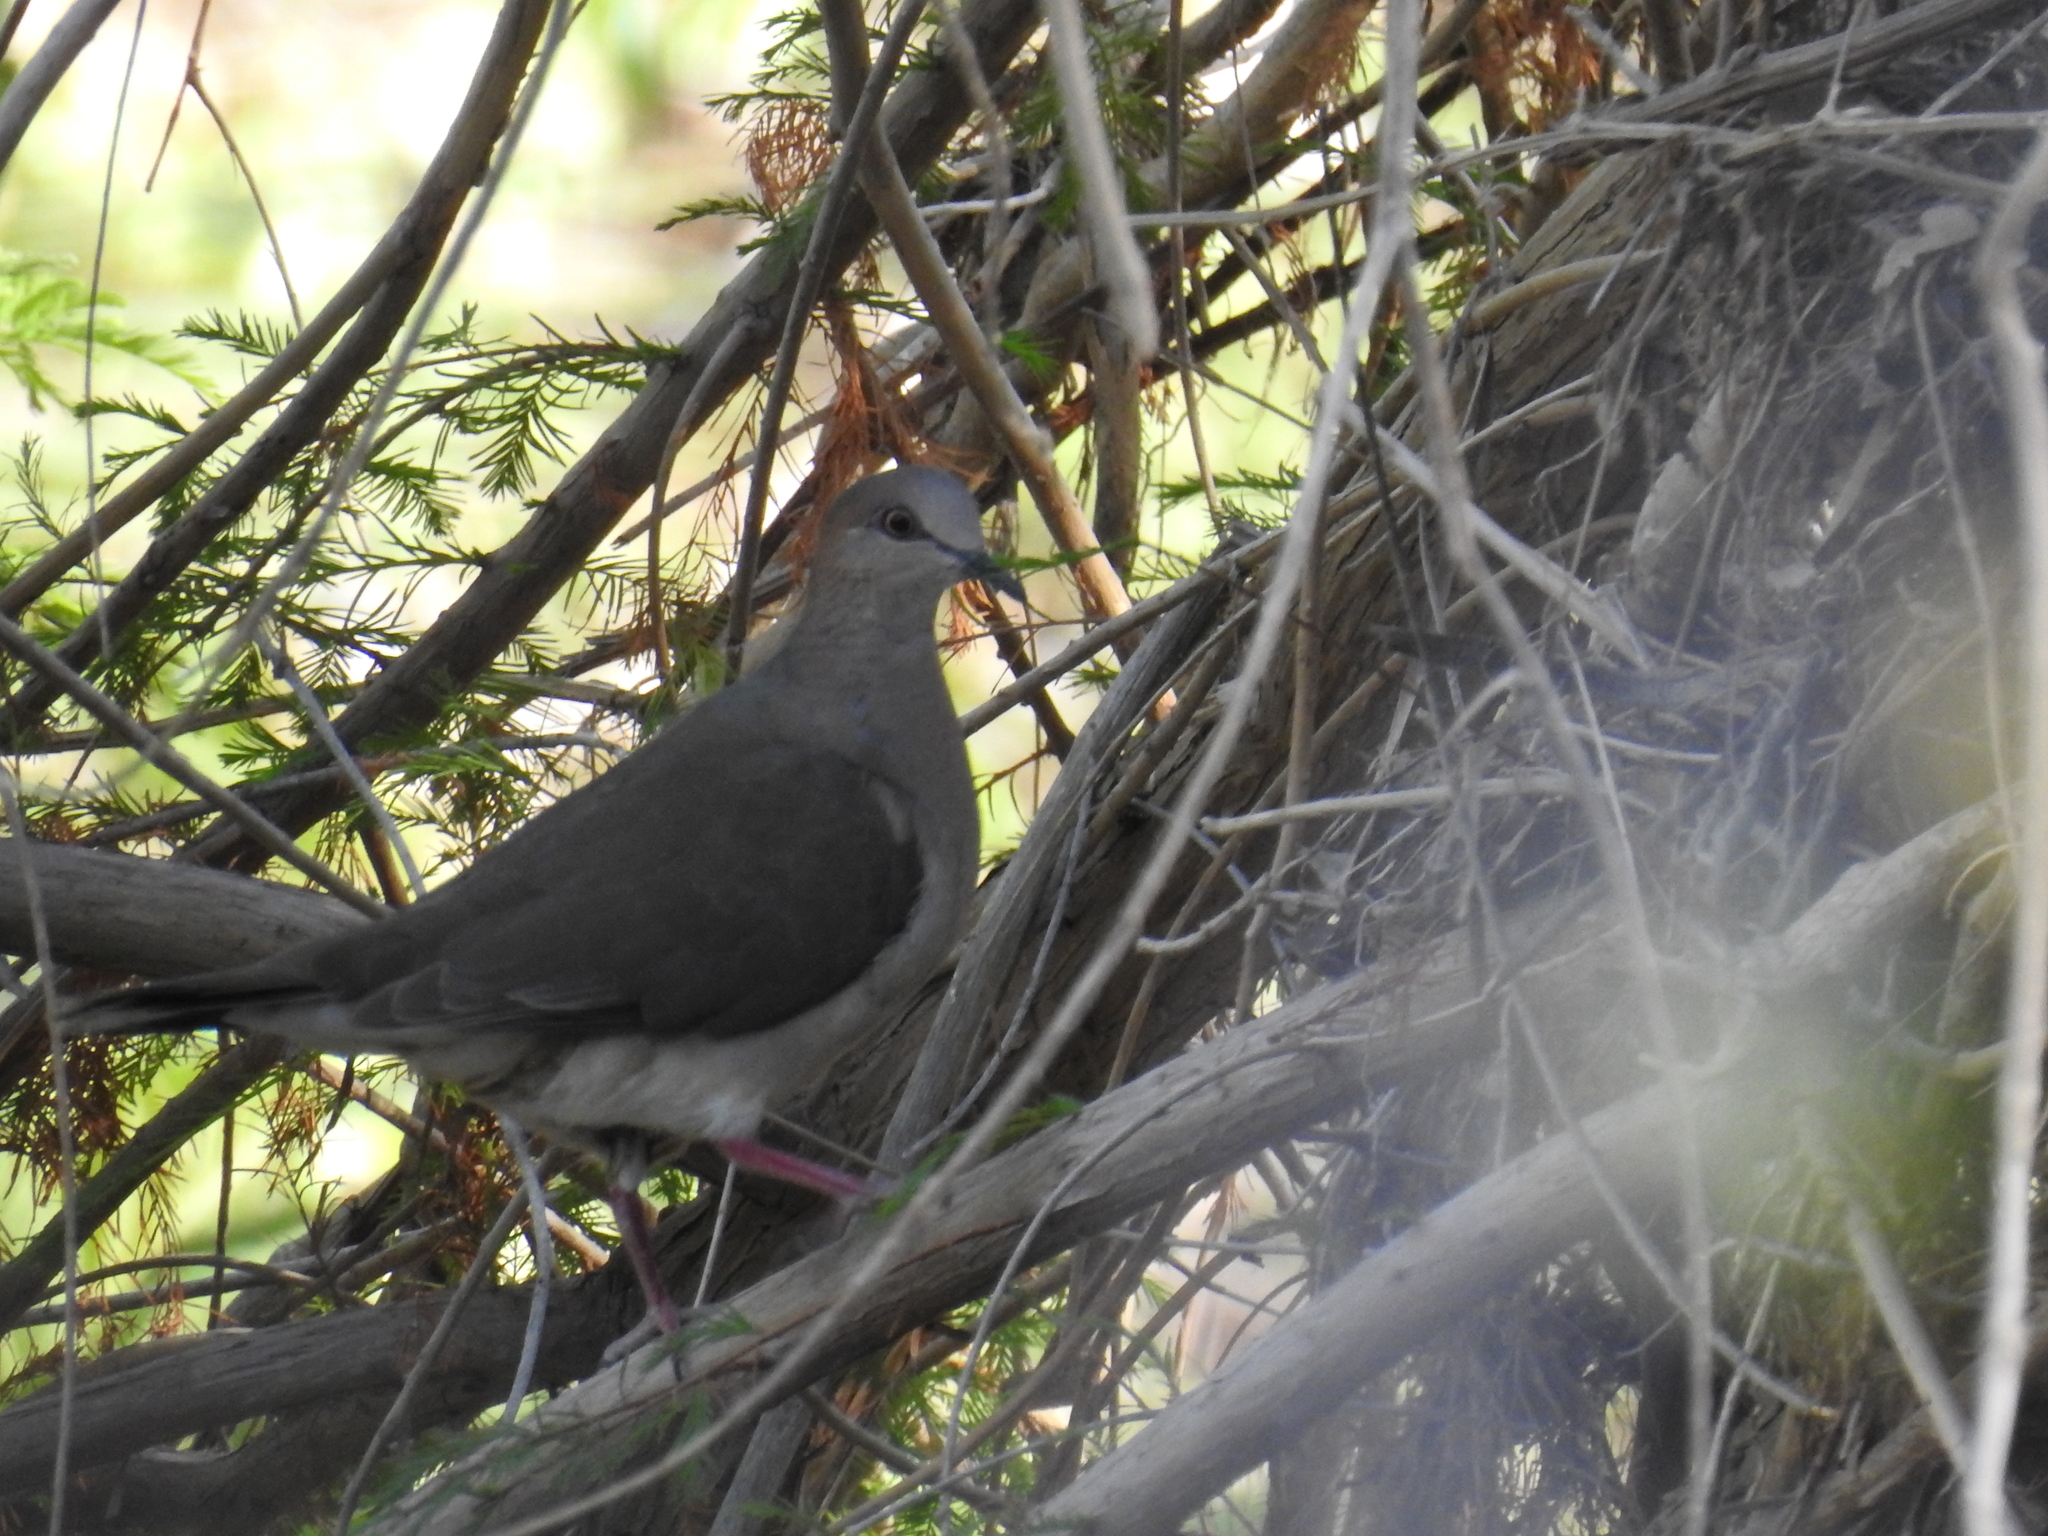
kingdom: Animalia
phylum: Chordata
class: Aves
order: Columbiformes
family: Columbidae
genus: Leptotila
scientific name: Leptotila verreauxi
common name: White-tipped dove
